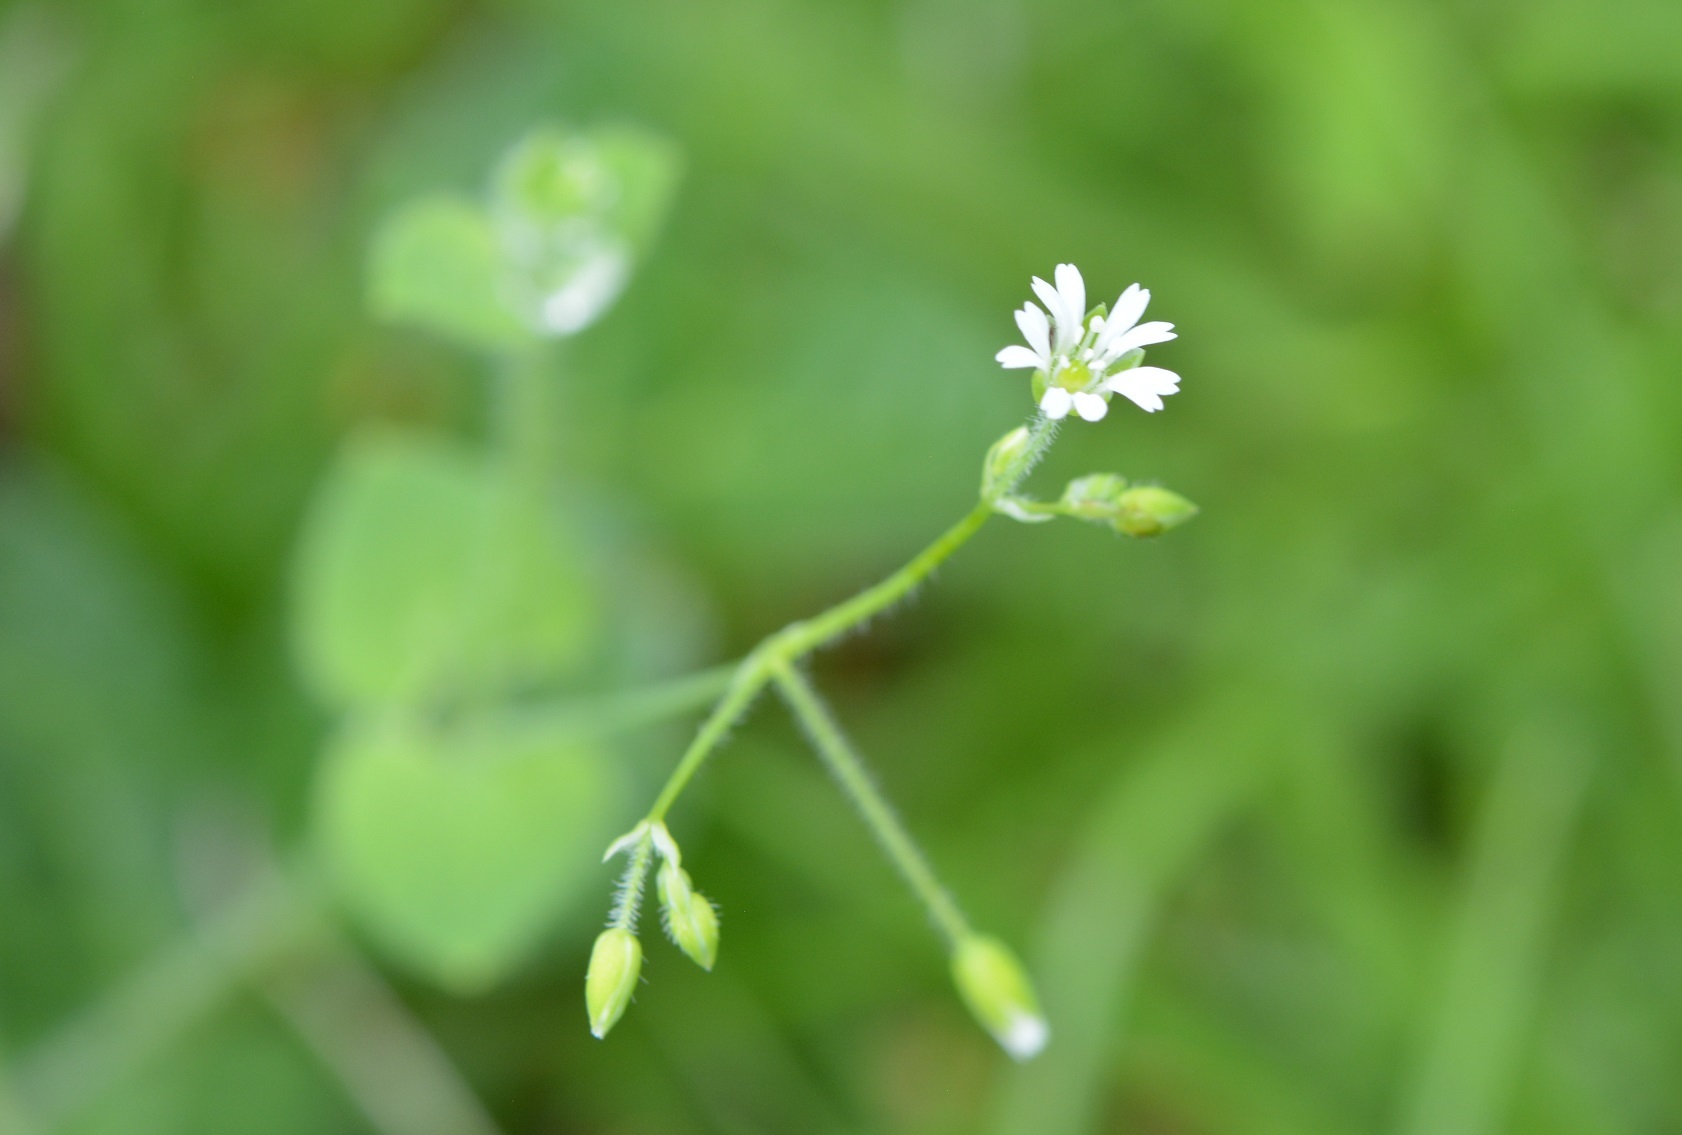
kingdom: Plantae
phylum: Tracheophyta
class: Magnoliopsida
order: Caryophyllales
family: Caryophyllaceae
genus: Drymaria
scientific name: Drymaria villosa
